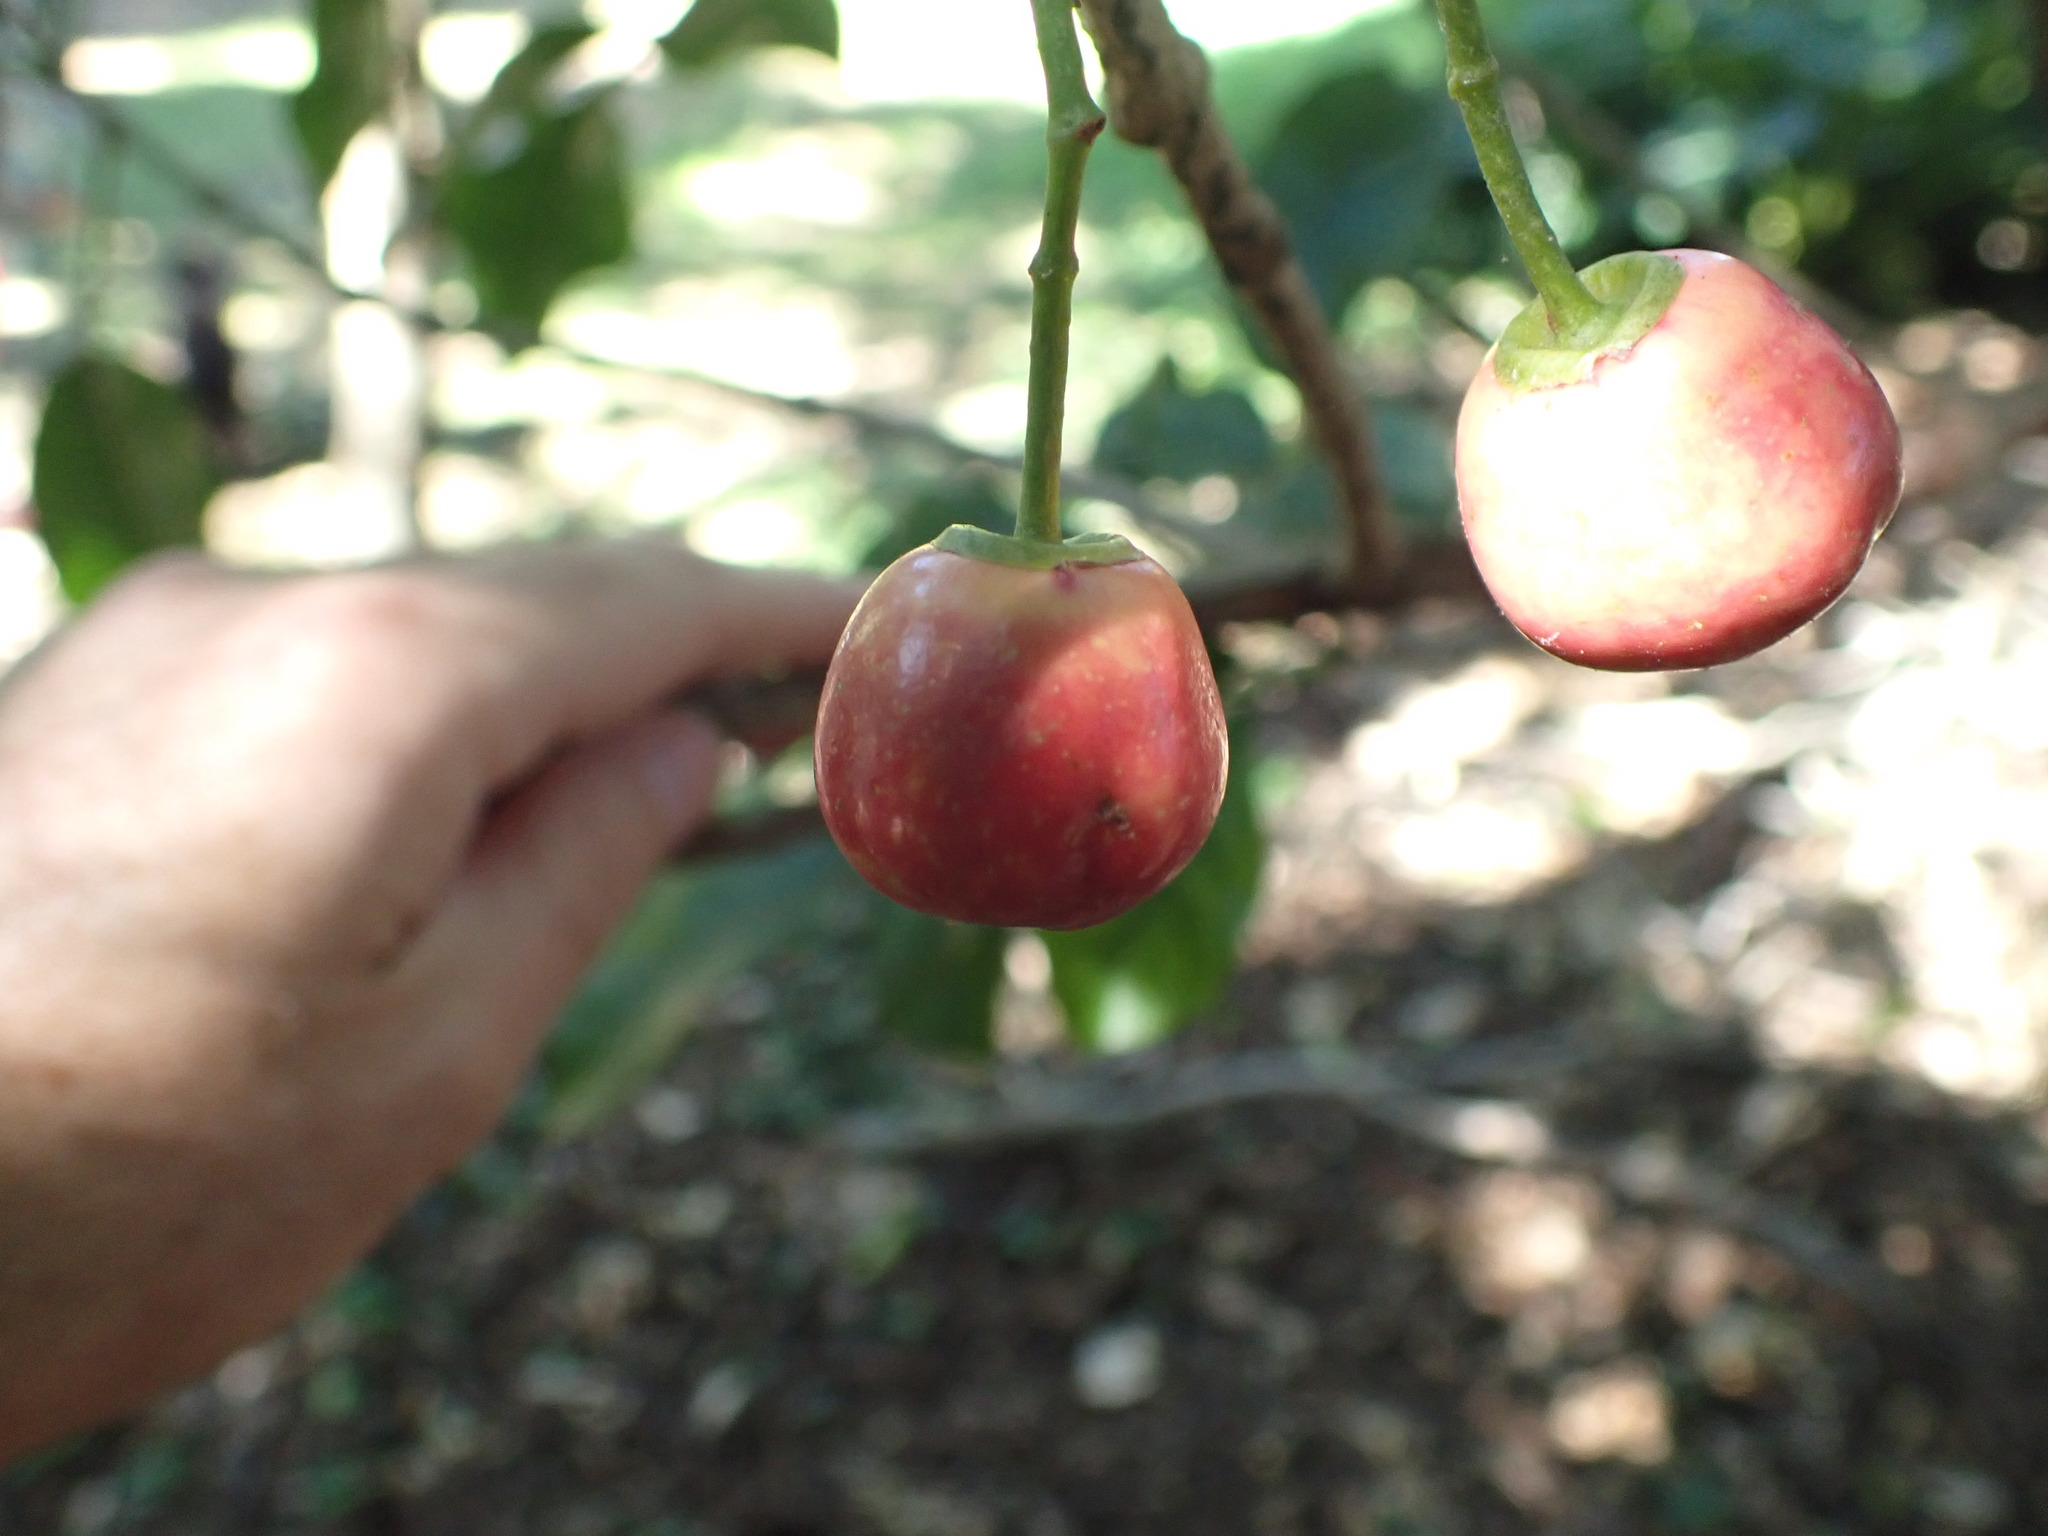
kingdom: Plantae
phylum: Tracheophyta
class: Magnoliopsida
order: Lamiales
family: Lamiaceae
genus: Vitex
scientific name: Vitex lucens
